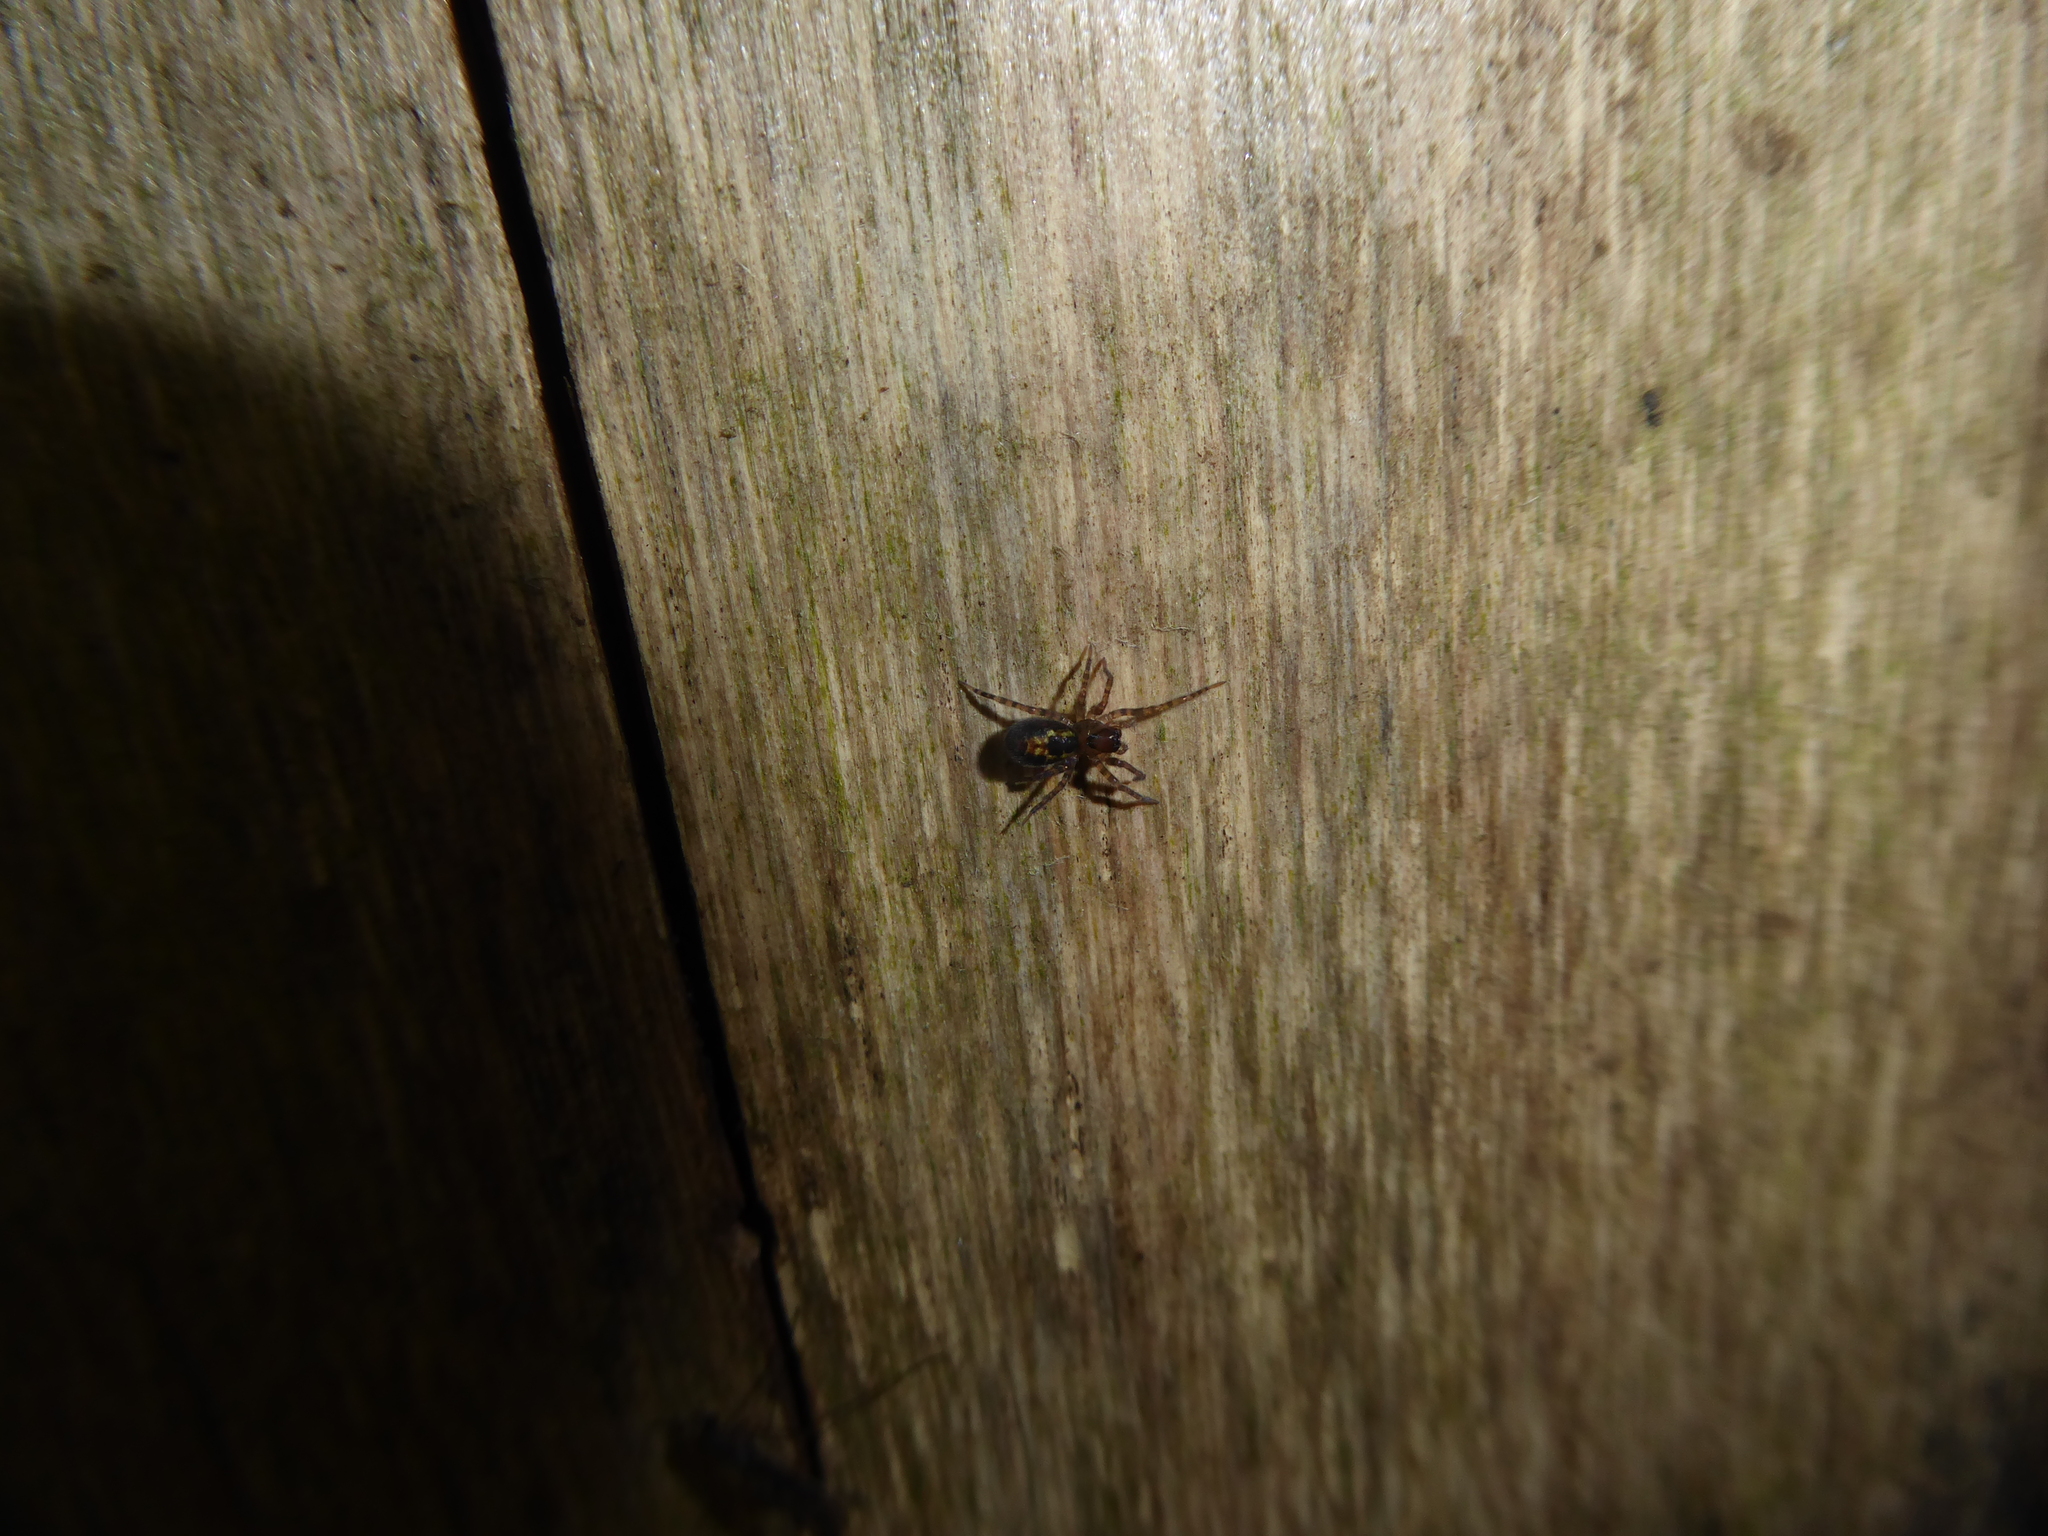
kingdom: Animalia
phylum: Arthropoda
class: Arachnida
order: Araneae
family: Amaurobiidae
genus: Amaurobius
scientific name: Amaurobius
